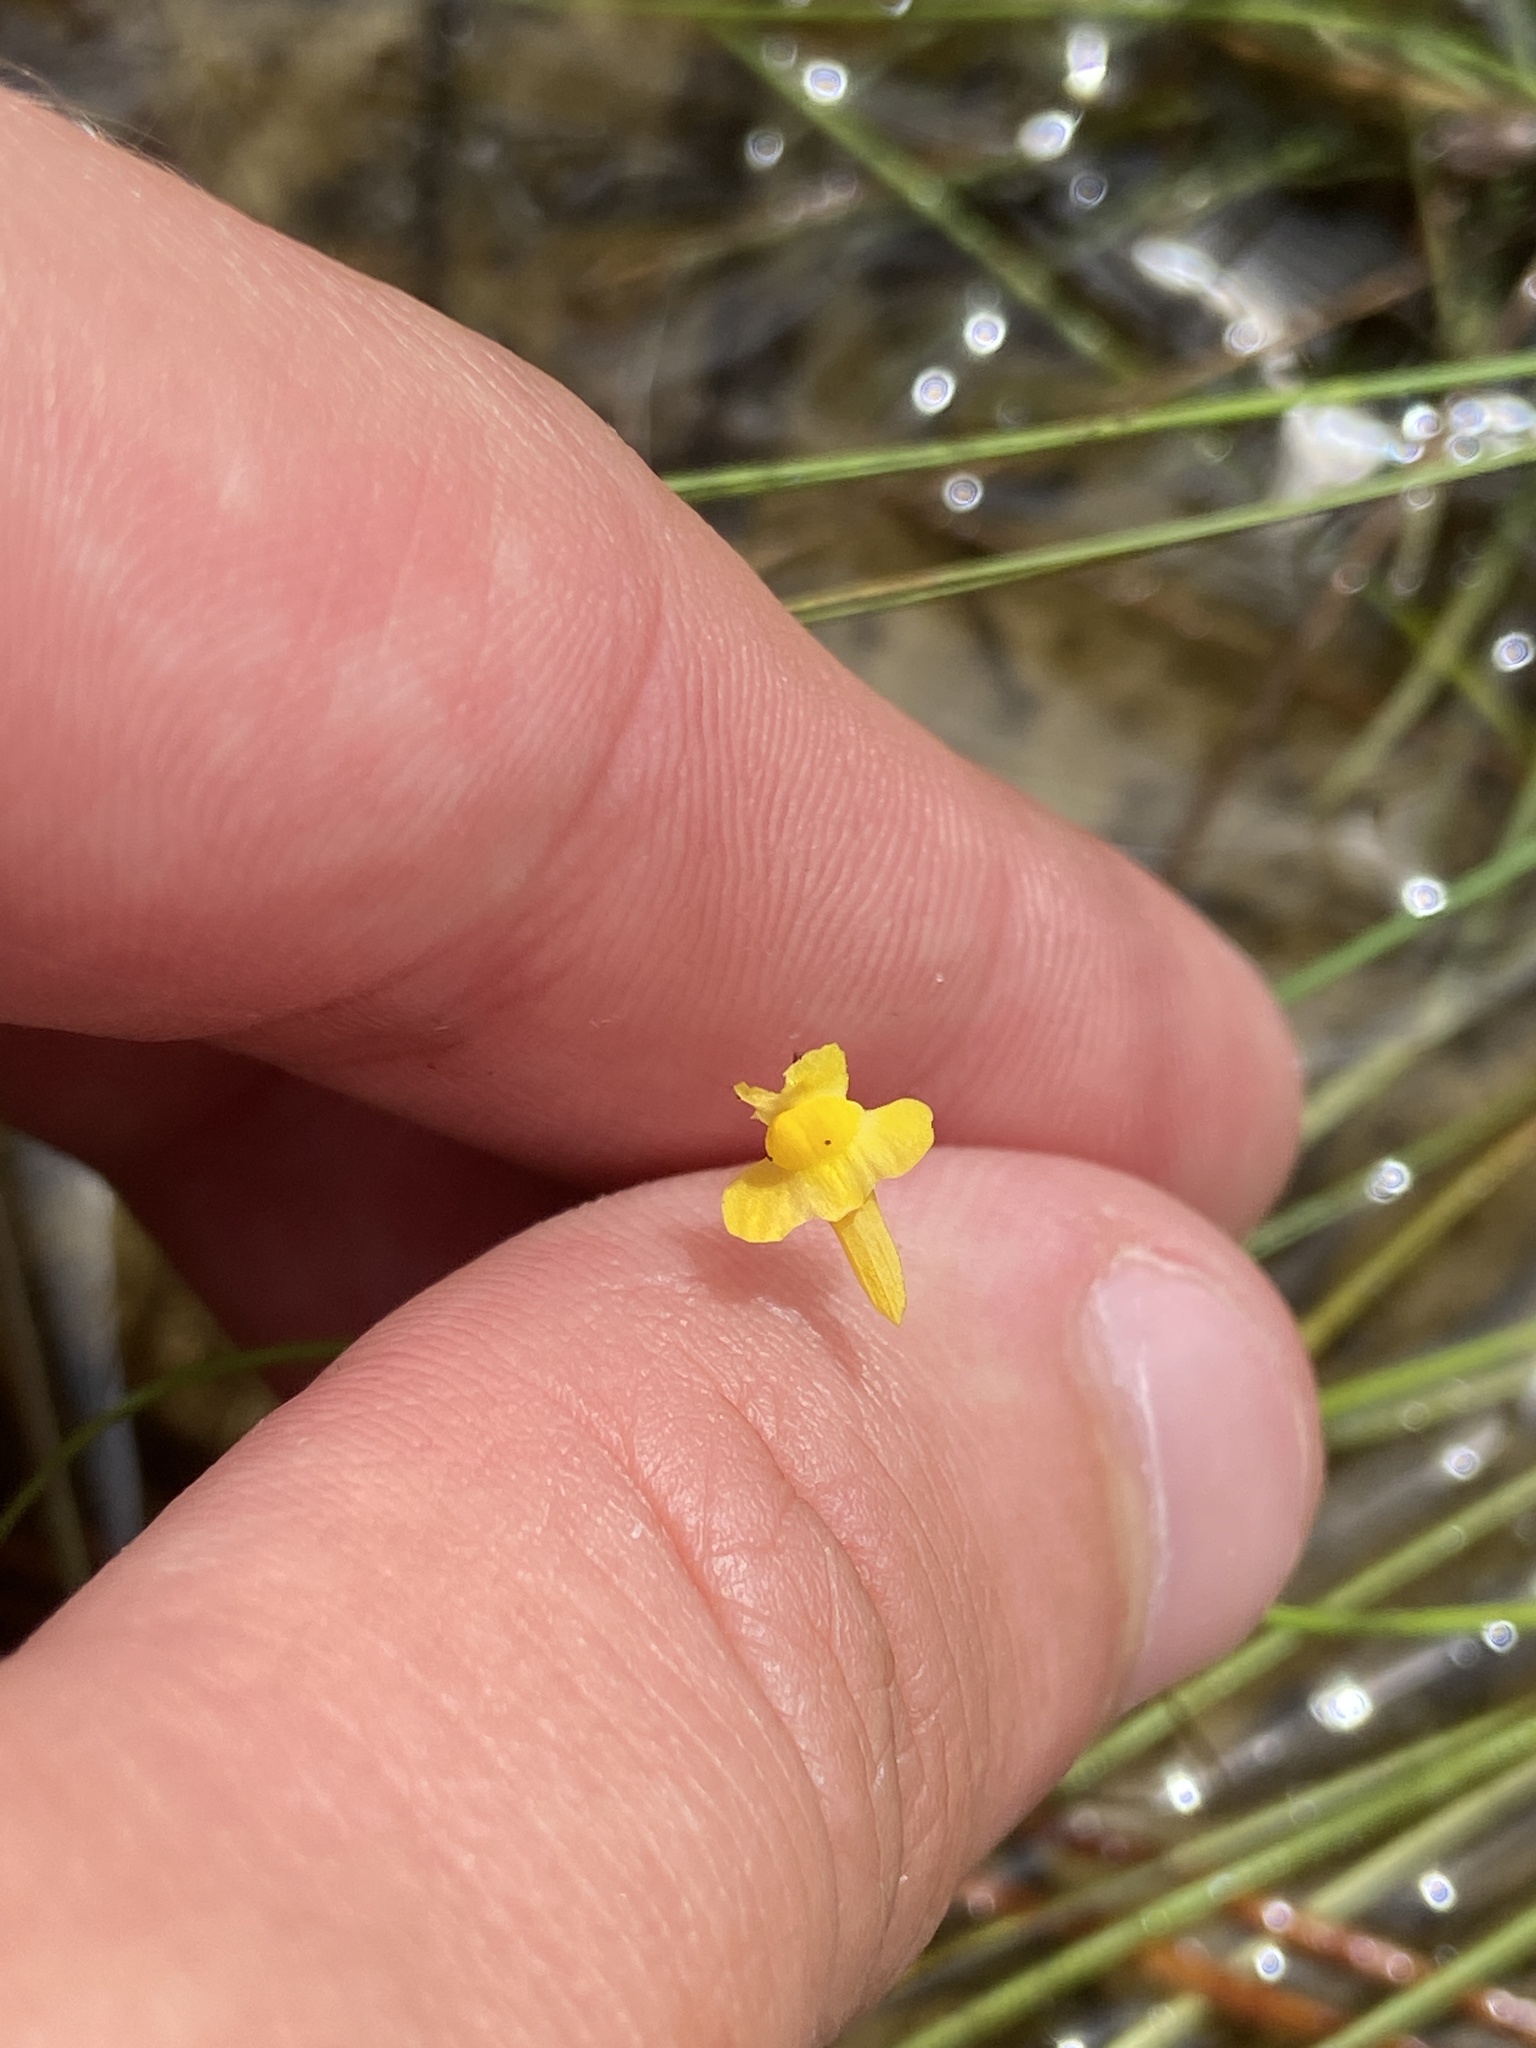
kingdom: Plantae
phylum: Tracheophyta
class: Magnoliopsida
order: Lamiales
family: Lentibulariaceae
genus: Utricularia
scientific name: Utricularia subulata
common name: Tiny bladderwort
